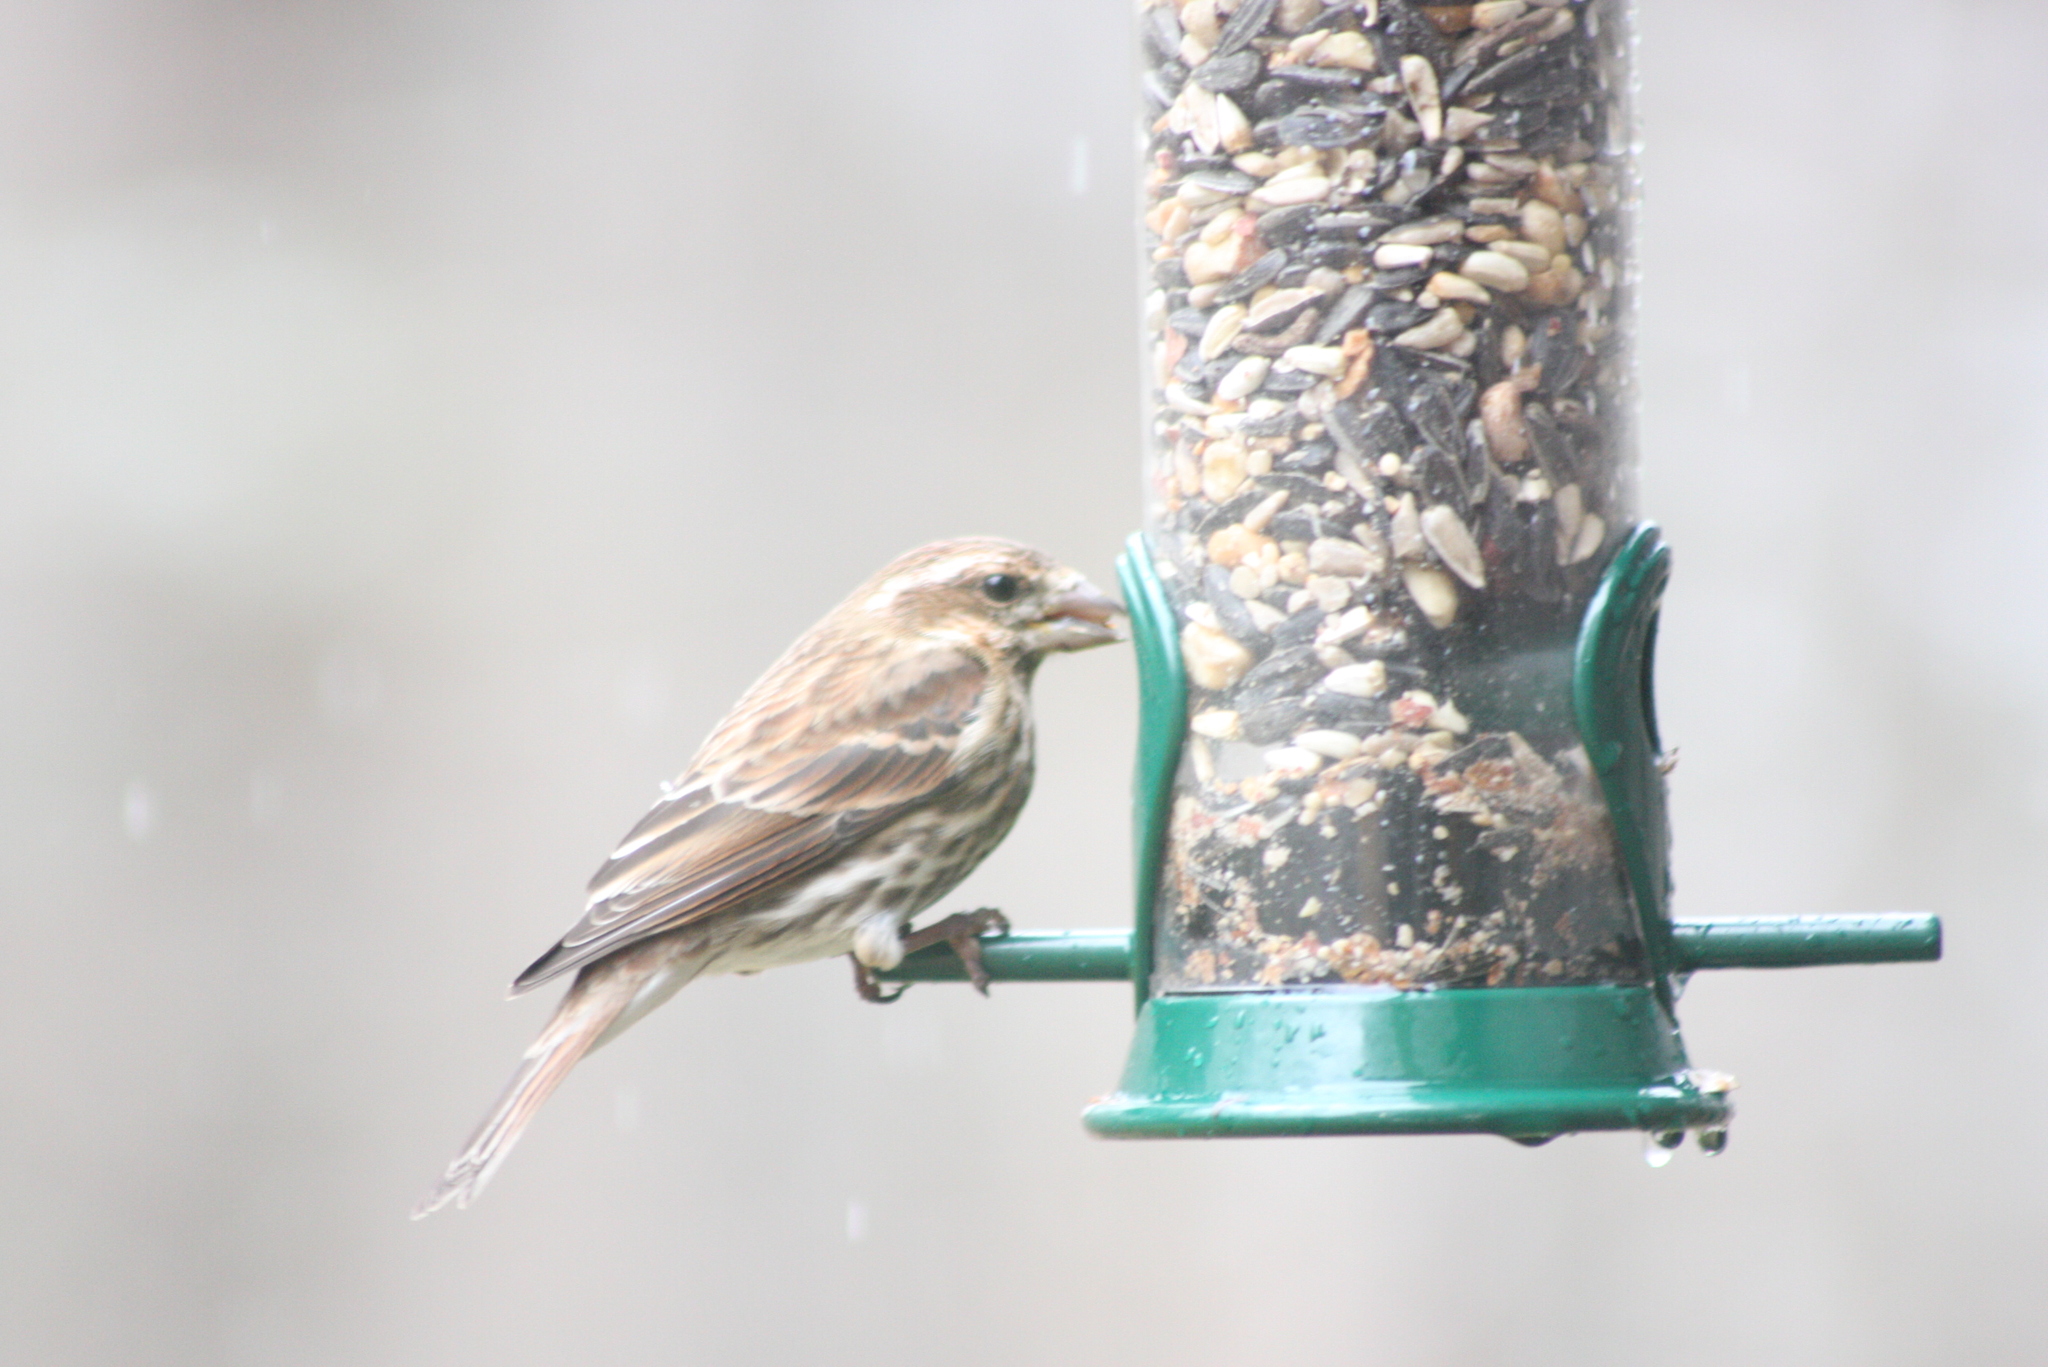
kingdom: Animalia
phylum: Chordata
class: Aves
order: Passeriformes
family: Fringillidae
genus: Haemorhous
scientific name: Haemorhous purpureus
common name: Purple finch
